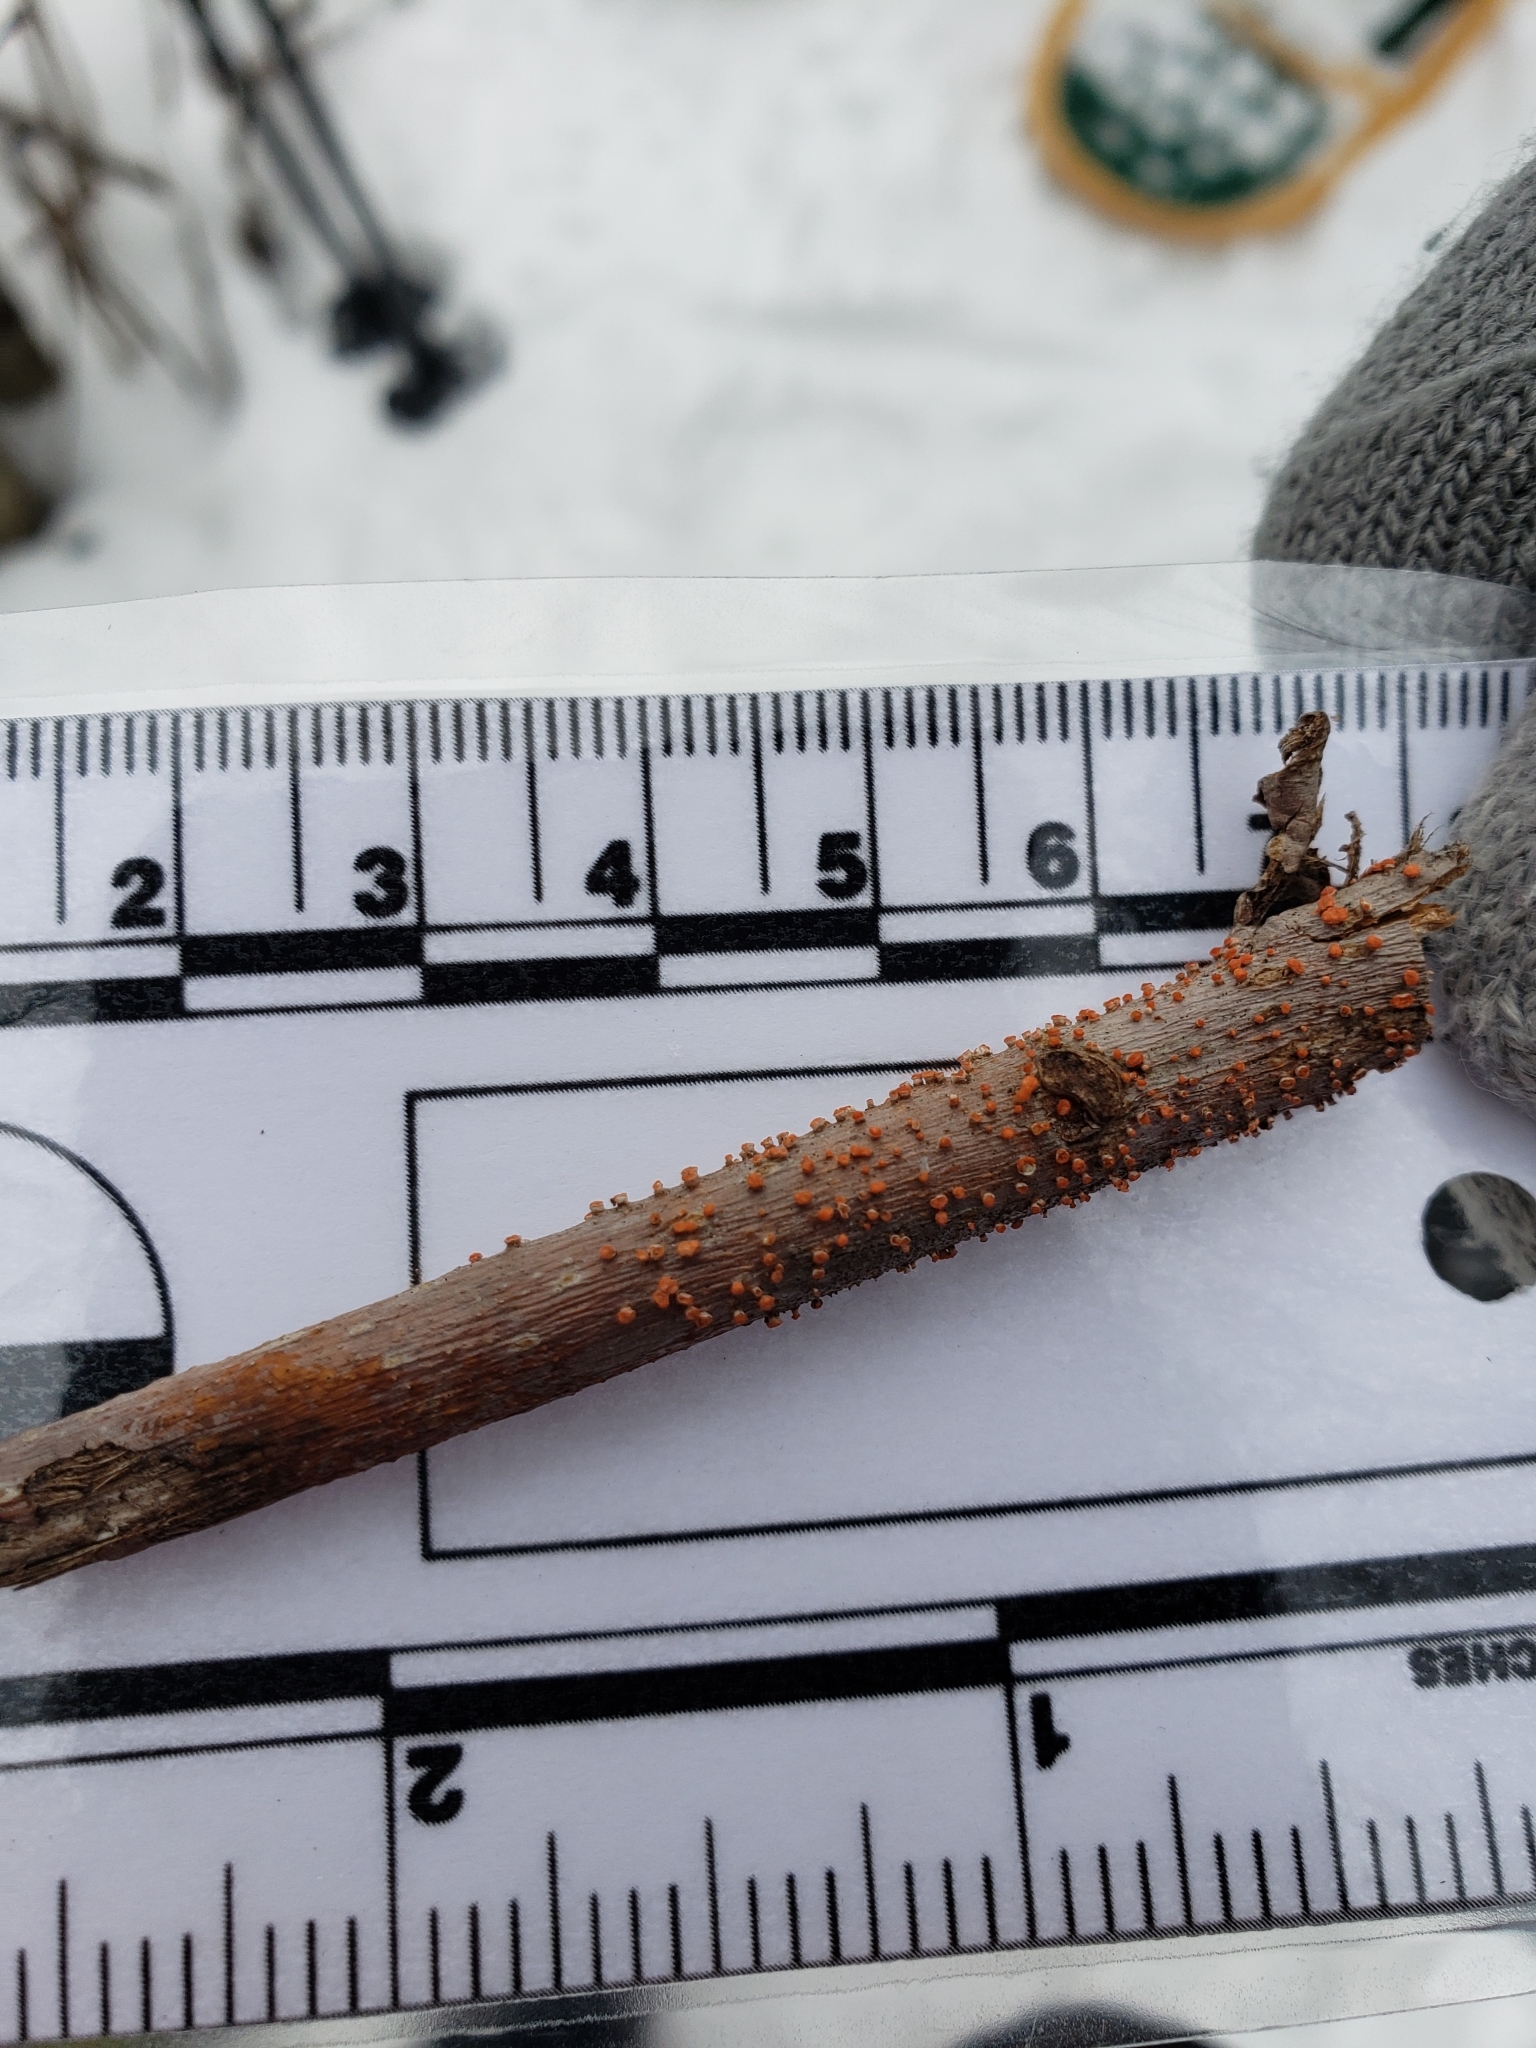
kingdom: Fungi
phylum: Ascomycota
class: Sordariomycetes
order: Hypocreales
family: Nectriaceae
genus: Nectria
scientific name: Nectria cinnabarina
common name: Coral spot
